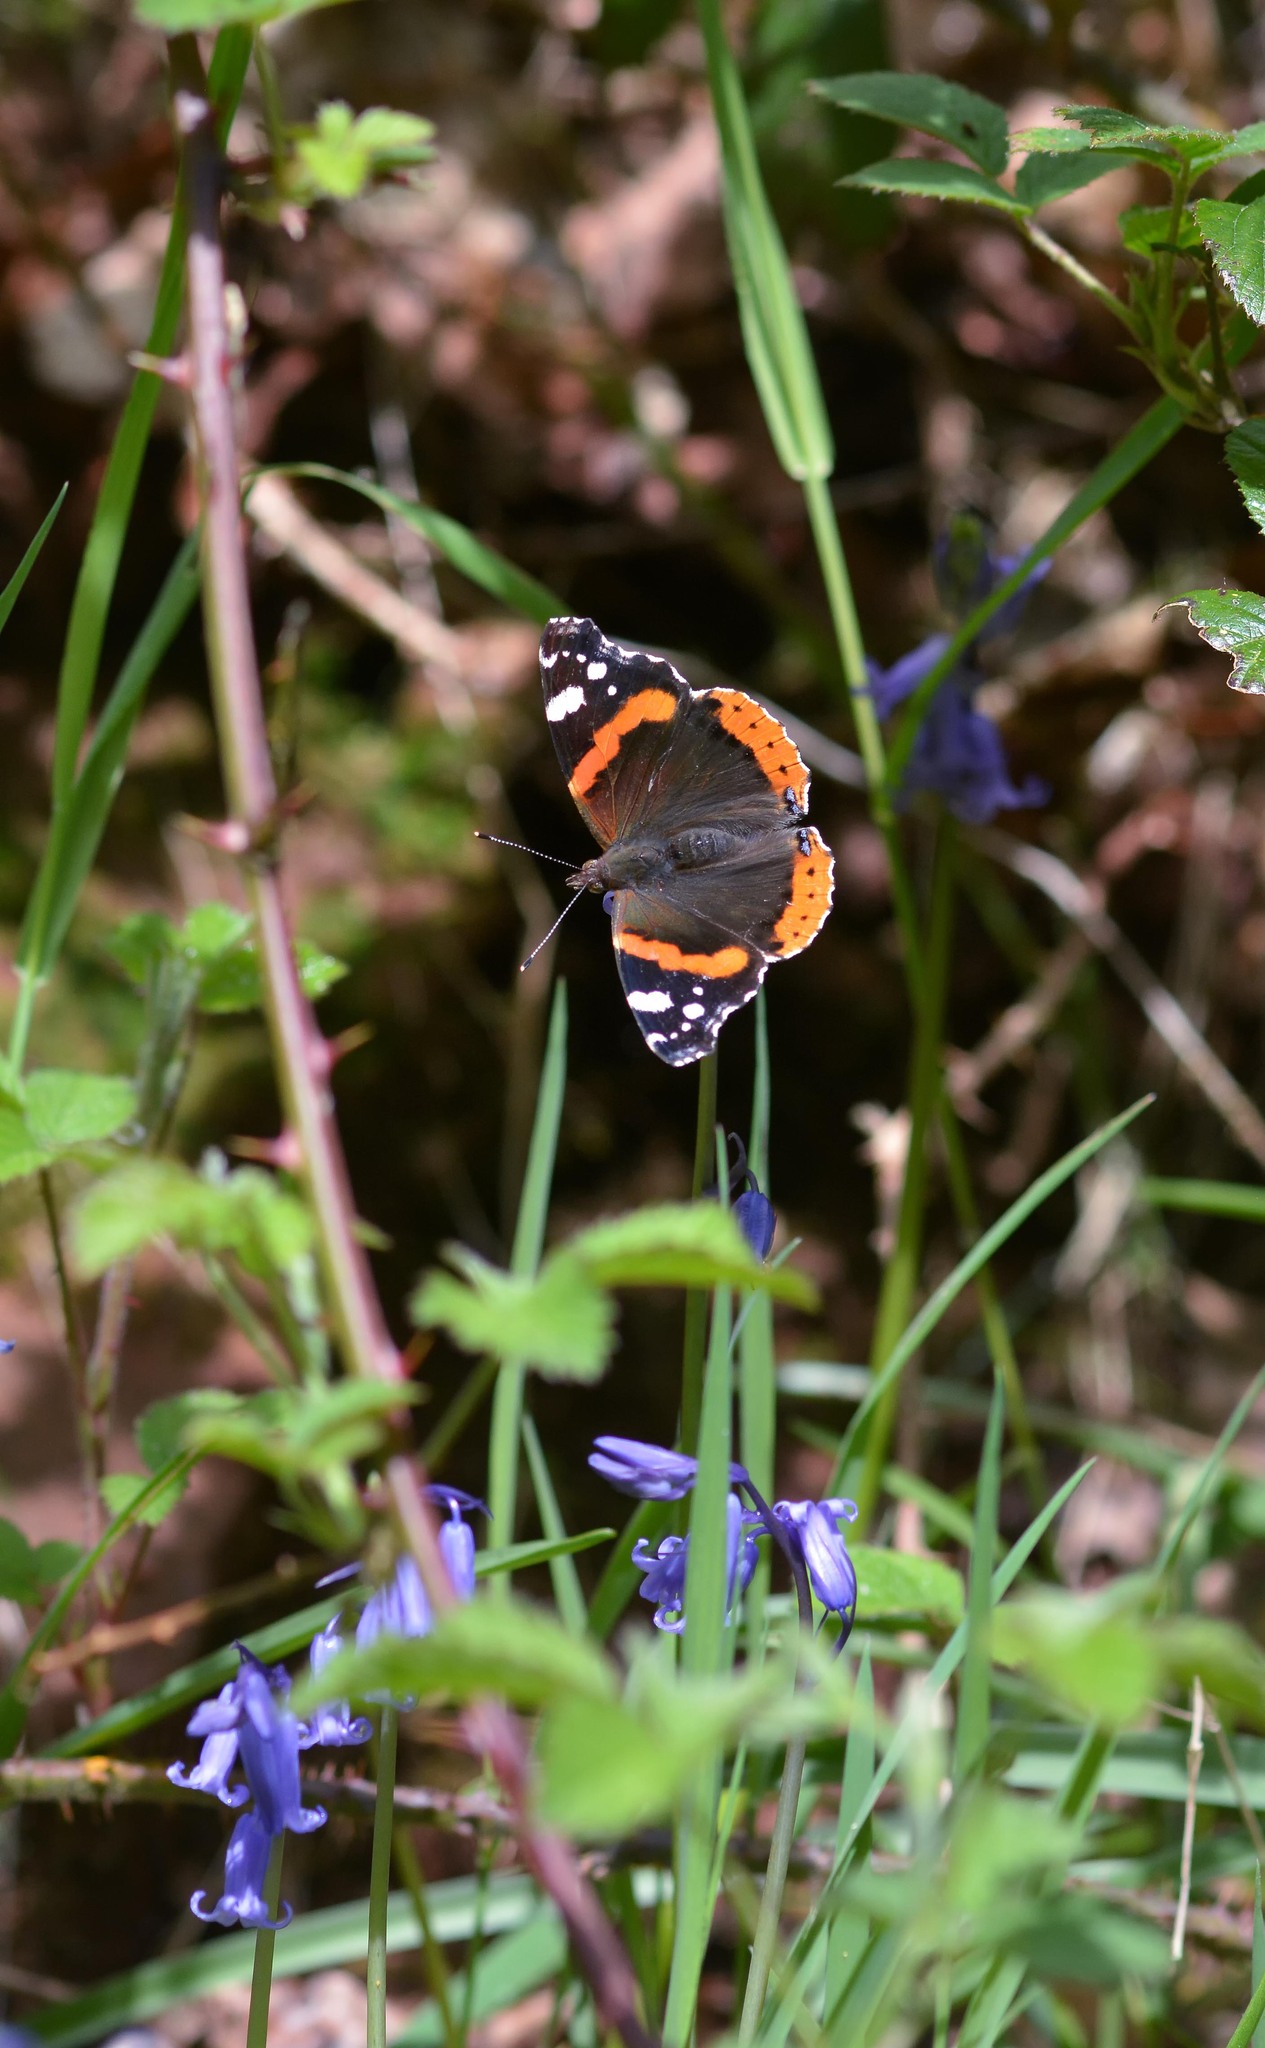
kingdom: Animalia
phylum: Arthropoda
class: Insecta
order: Lepidoptera
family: Nymphalidae
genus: Vanessa
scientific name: Vanessa atalanta
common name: Red admiral
